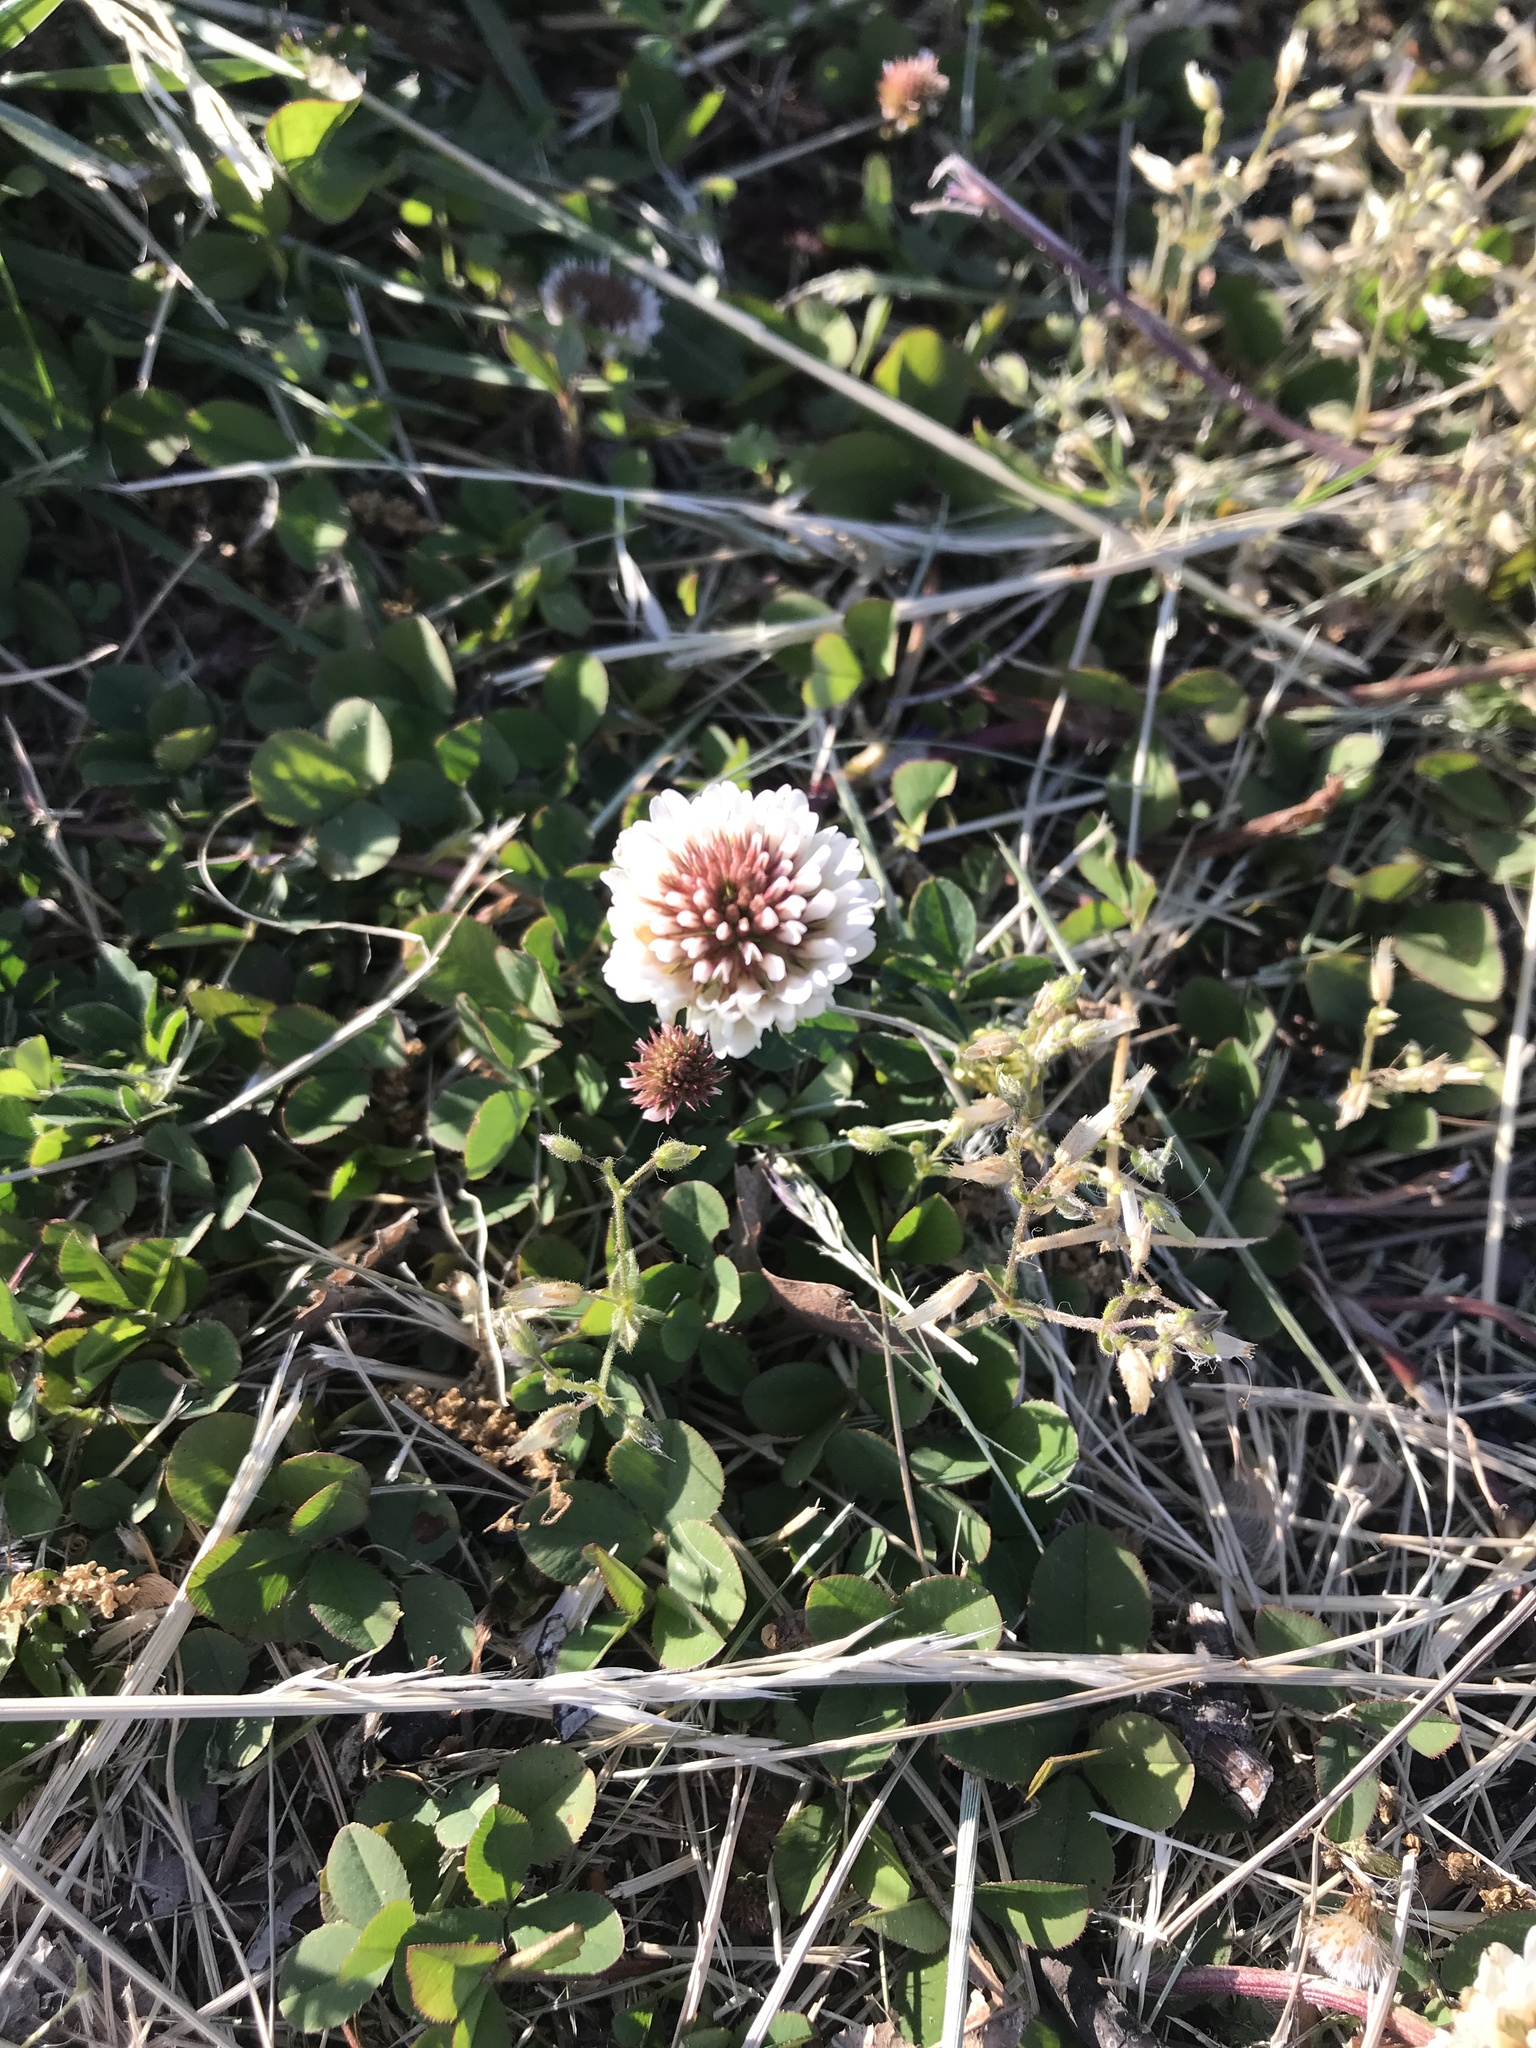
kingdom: Plantae
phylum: Tracheophyta
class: Magnoliopsida
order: Fabales
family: Fabaceae
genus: Trifolium
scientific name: Trifolium repens
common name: White clover
